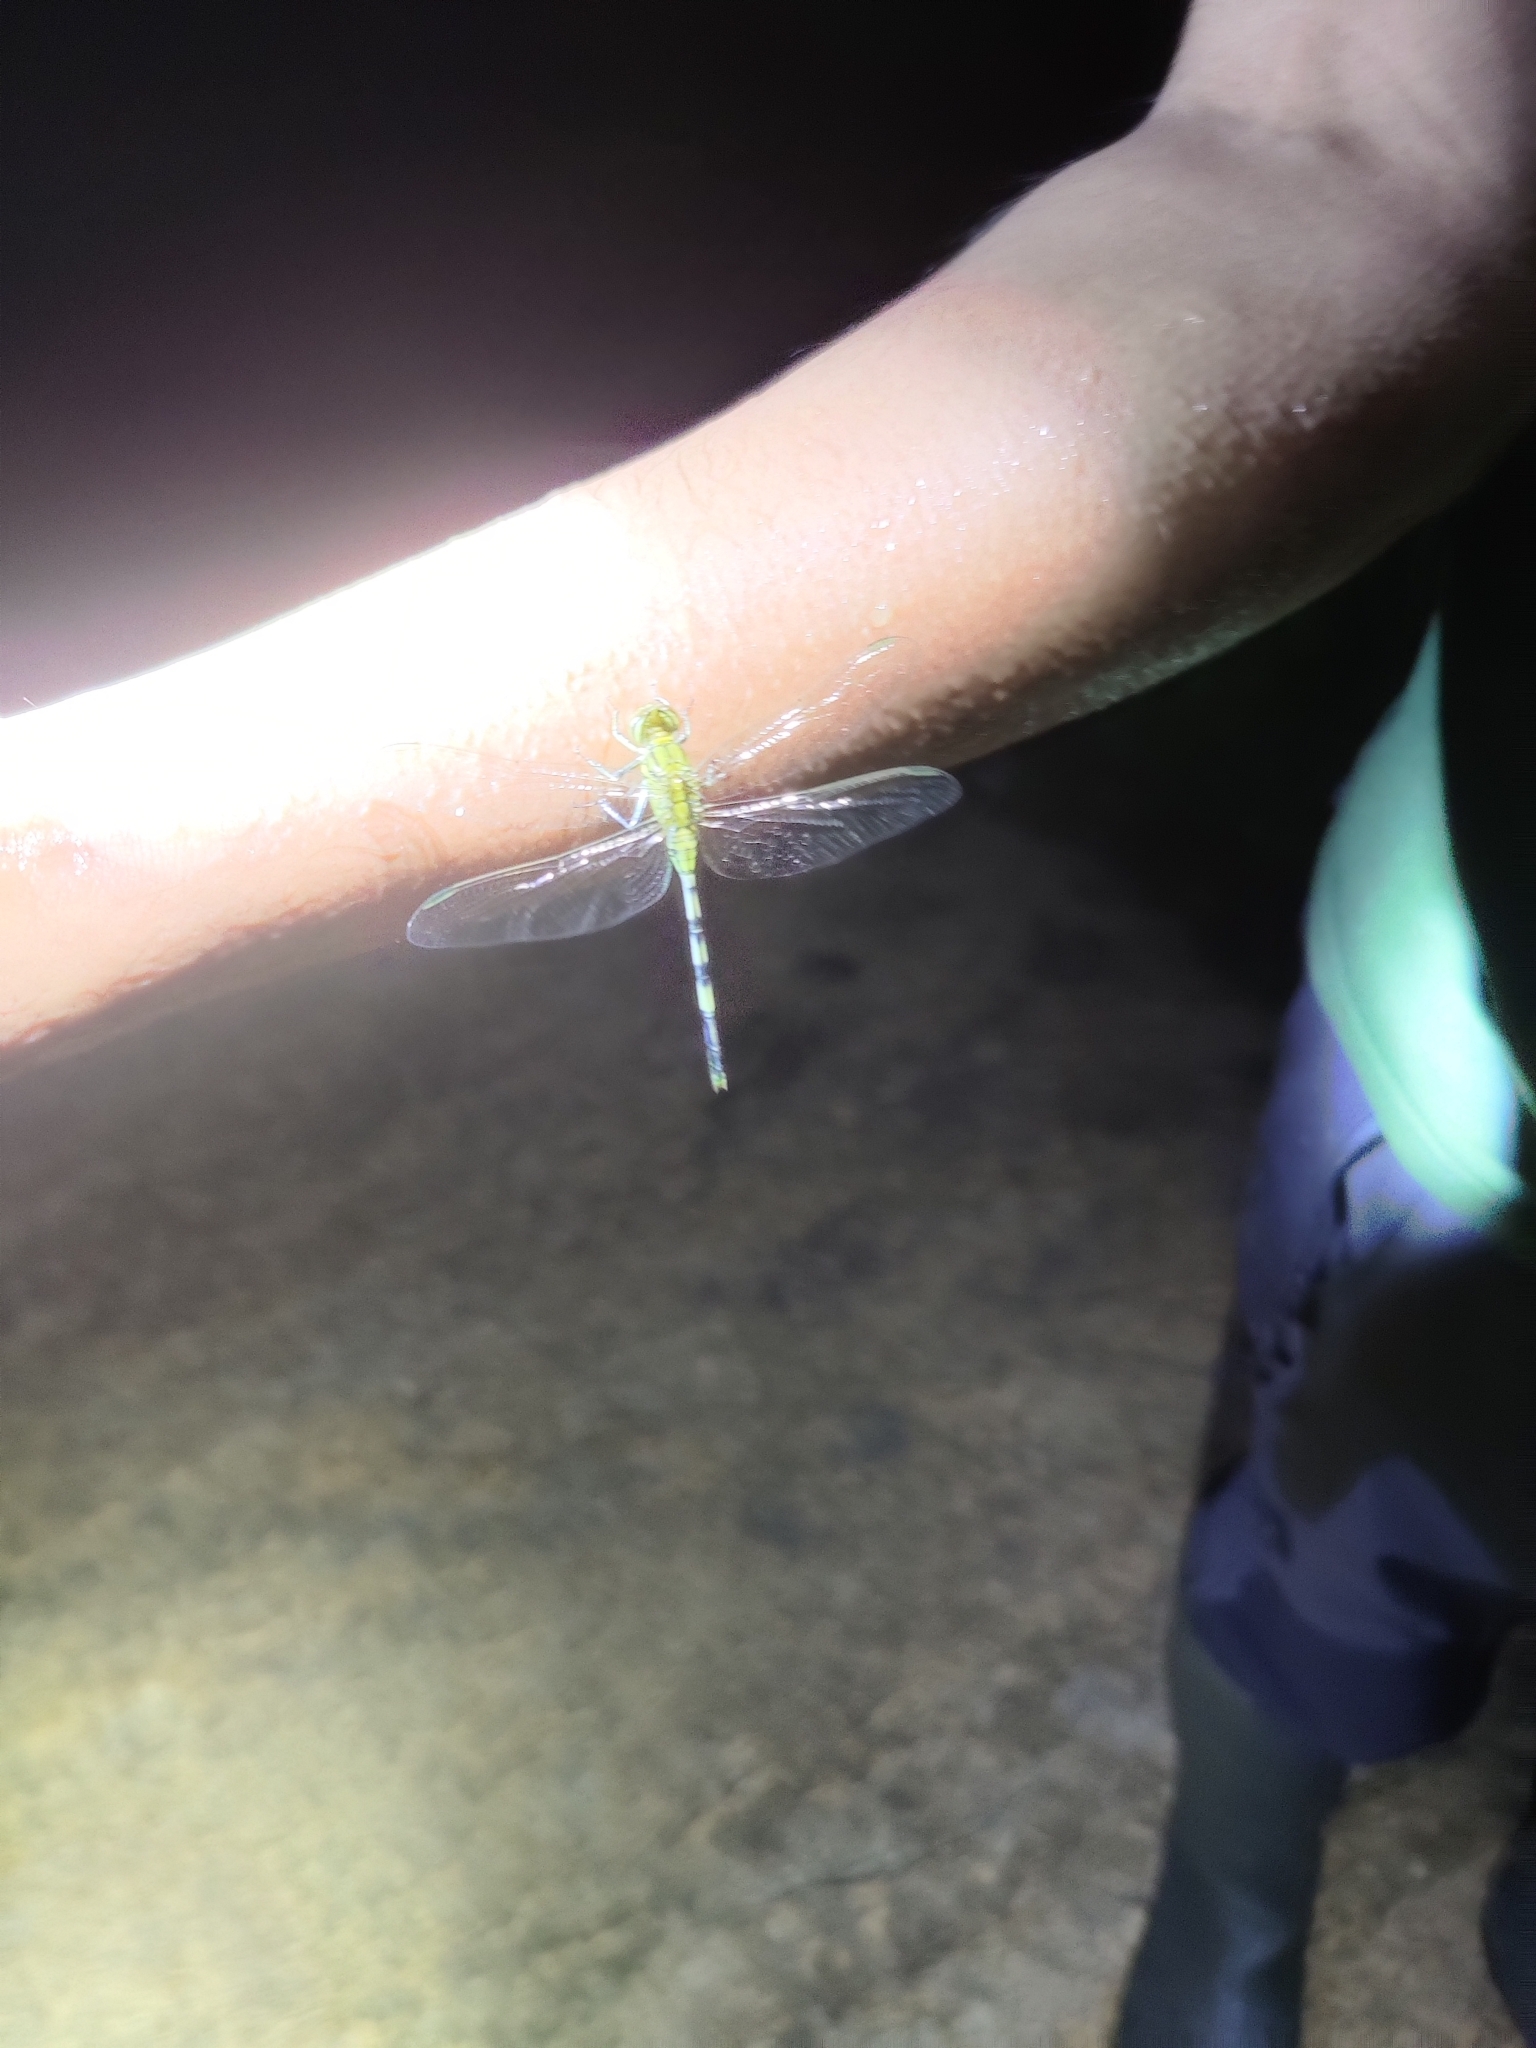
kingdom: Animalia
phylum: Arthropoda
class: Insecta
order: Odonata
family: Libellulidae
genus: Orthetrum
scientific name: Orthetrum sabina
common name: Slender skimmer
